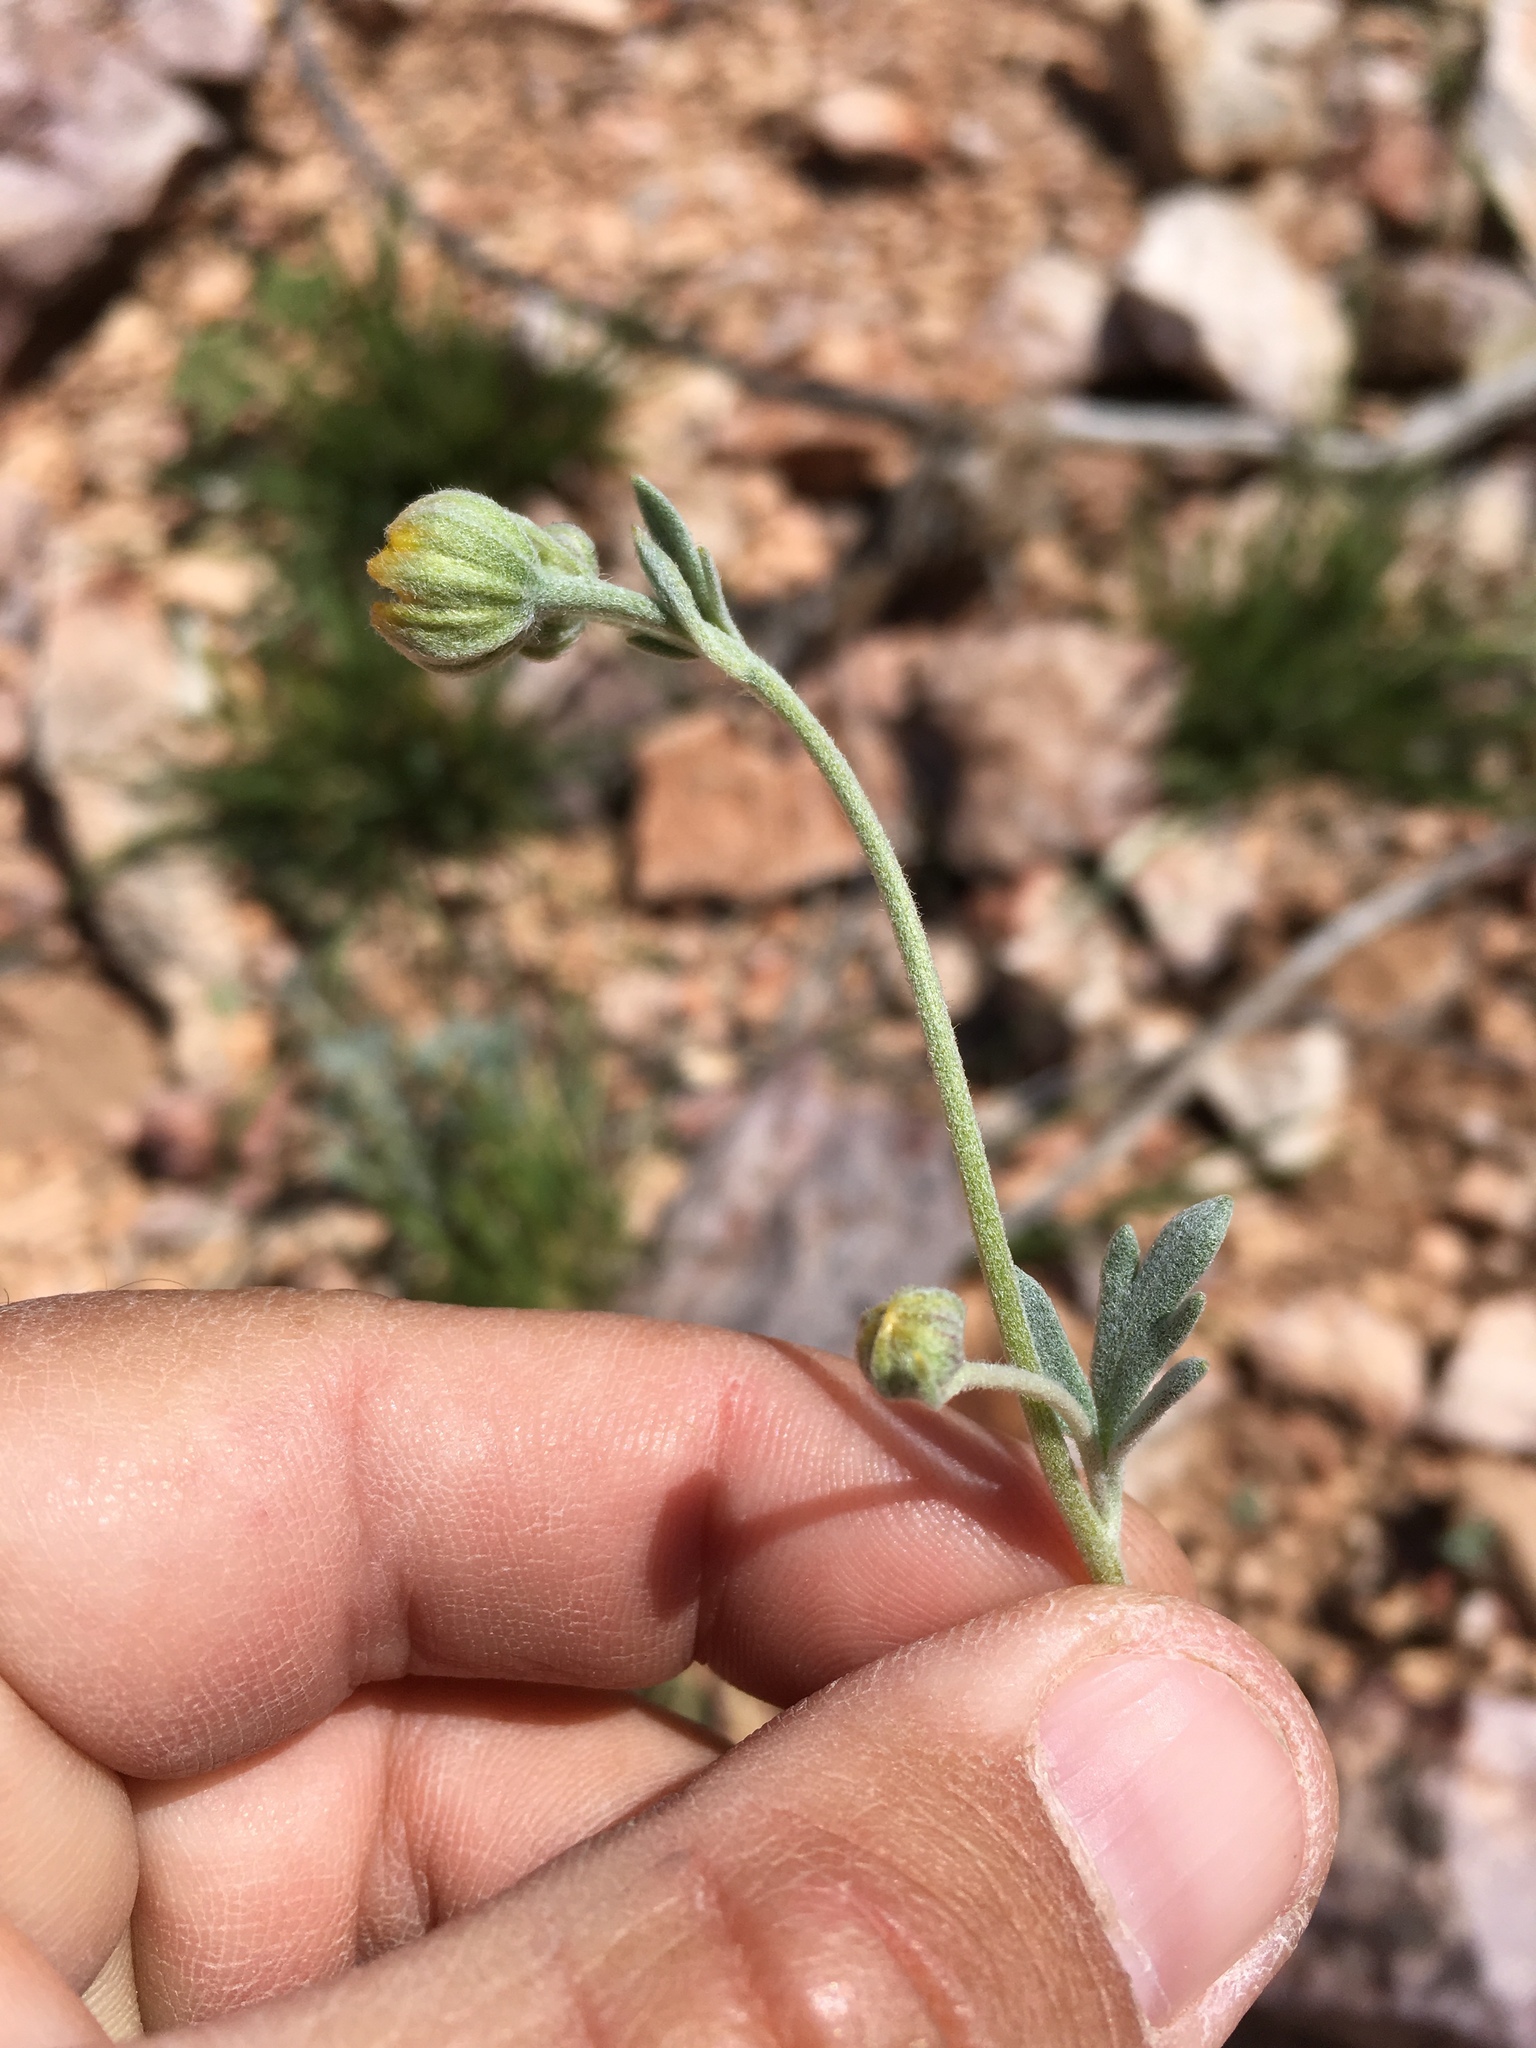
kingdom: Plantae
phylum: Tracheophyta
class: Magnoliopsida
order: Asterales
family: Asteraceae
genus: Picradeniopsis
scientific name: Picradeniopsis absinthifolia
